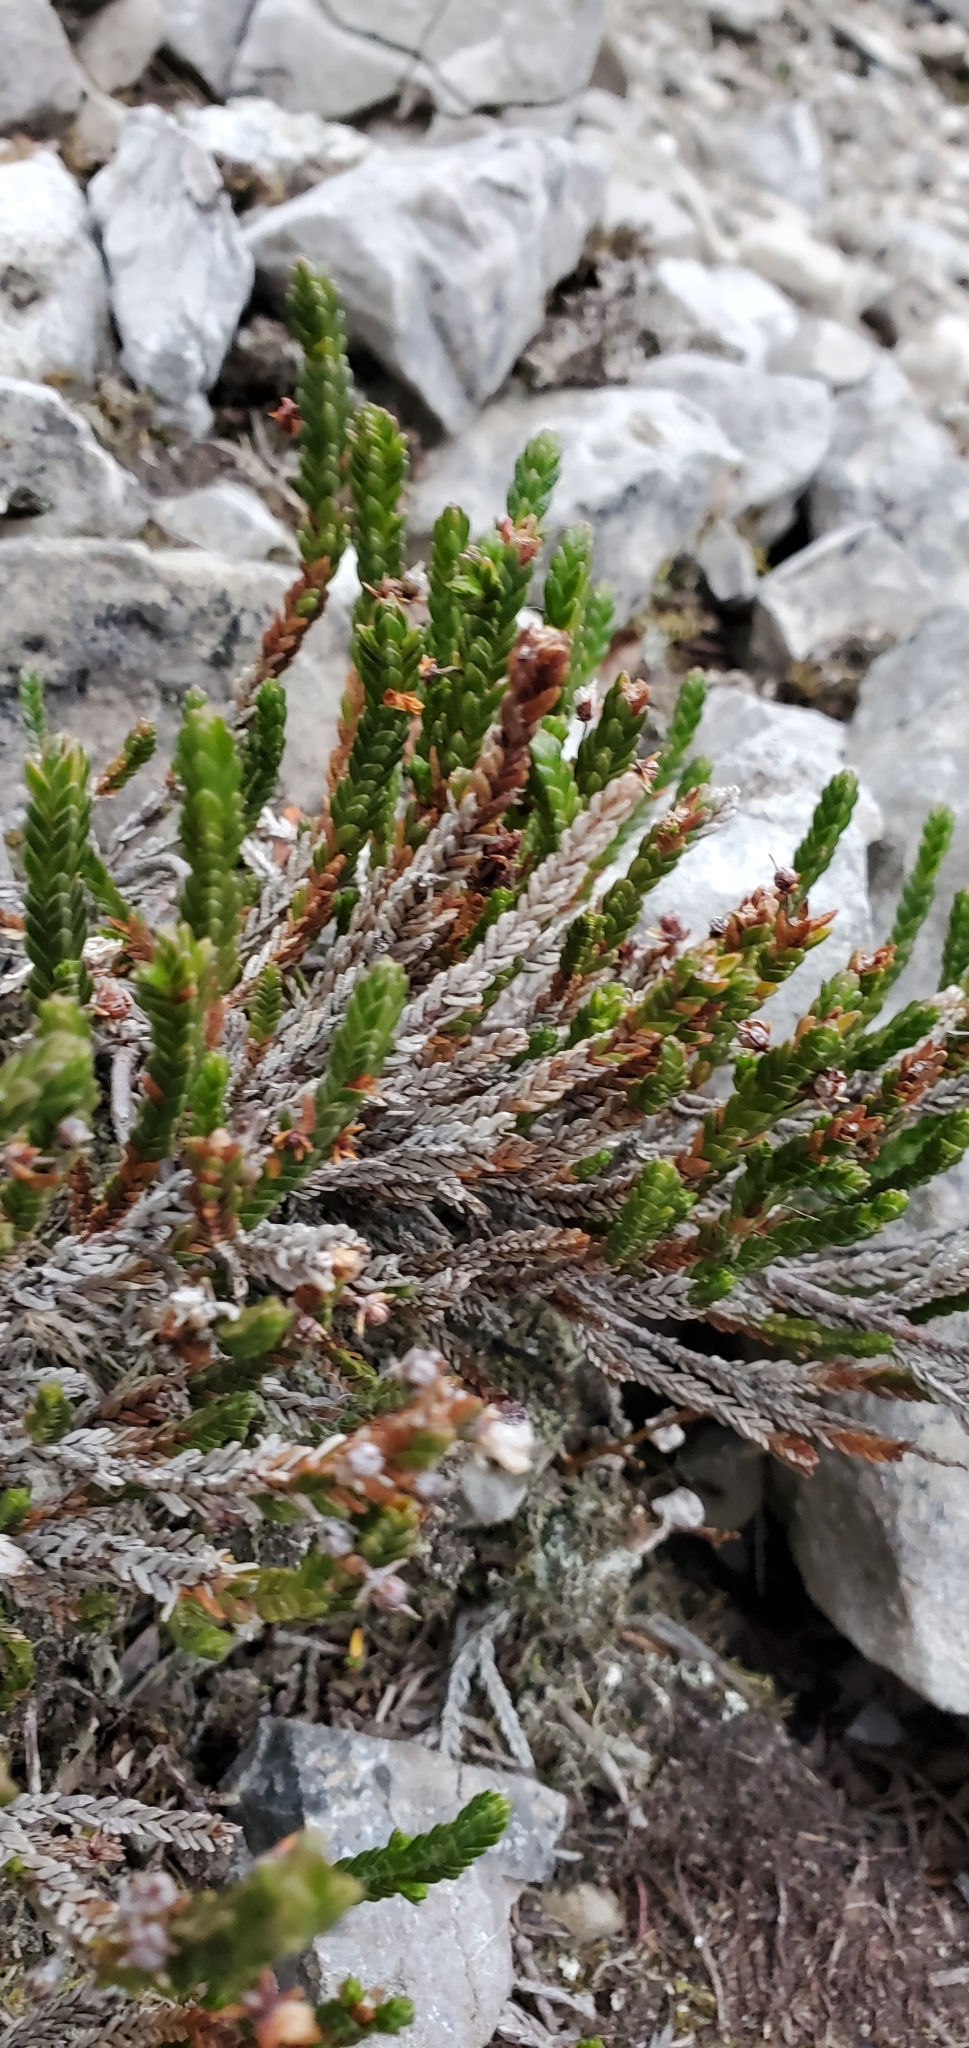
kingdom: Plantae
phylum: Tracheophyta
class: Magnoliopsida
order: Ericales
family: Ericaceae
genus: Cassiope
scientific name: Cassiope tetragona
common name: Arctic bell heather
